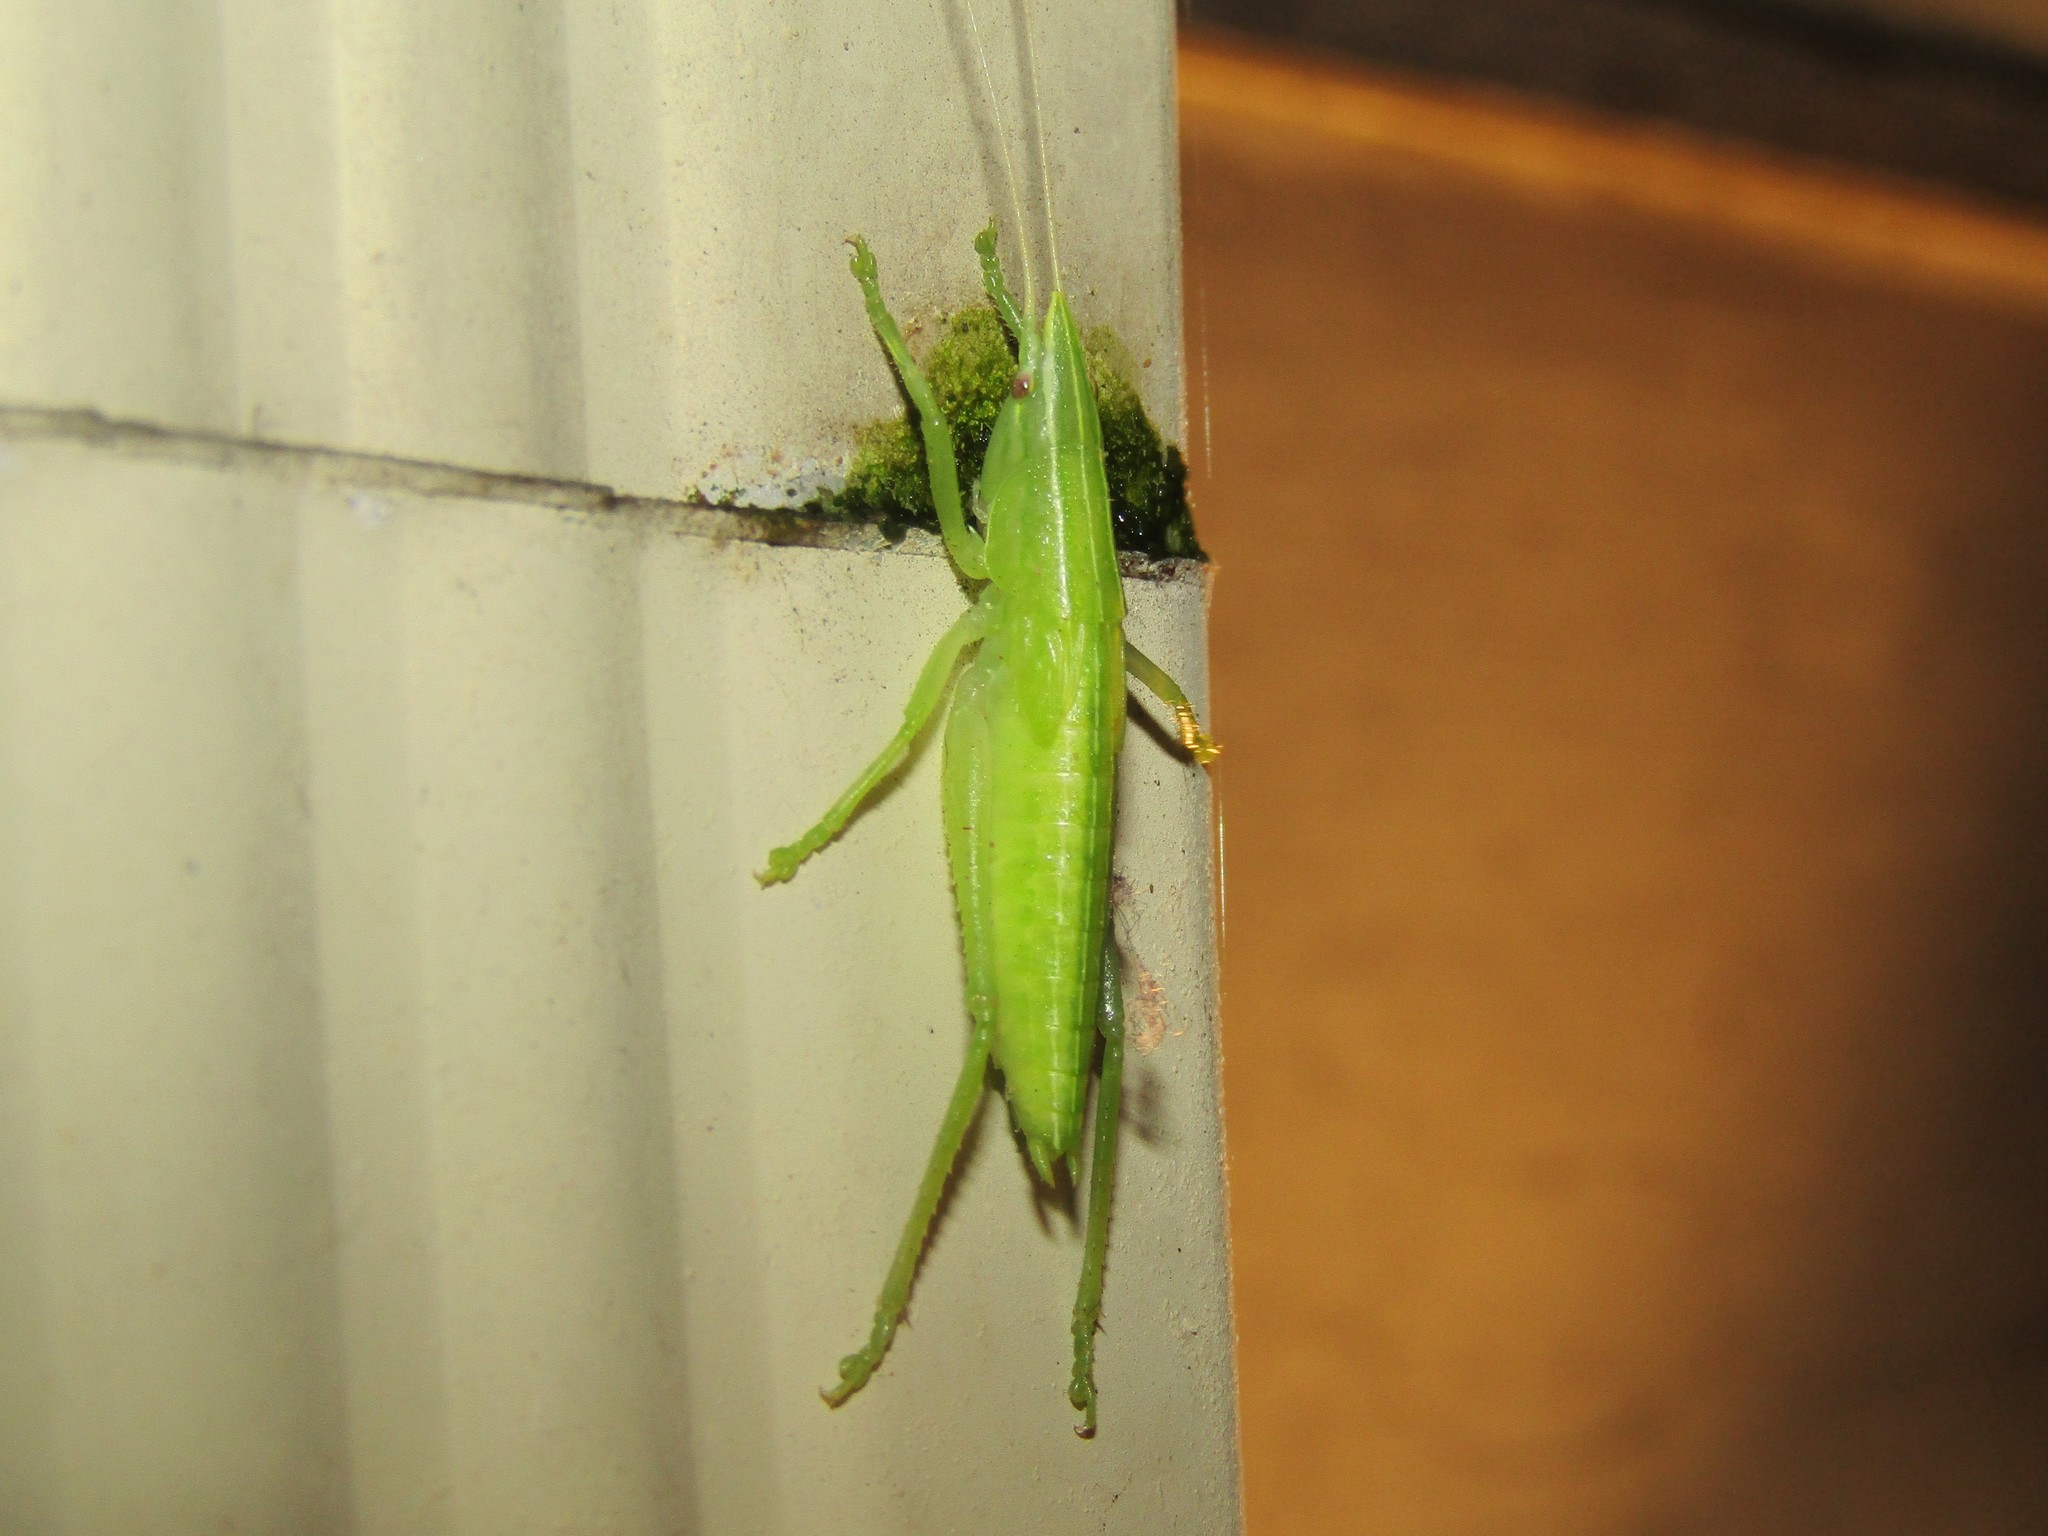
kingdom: Animalia
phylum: Arthropoda
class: Insecta
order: Orthoptera
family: Tettigoniidae
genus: Pyrgocorypha
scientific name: Pyrgocorypha uncinata
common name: Hook-faced conehead
